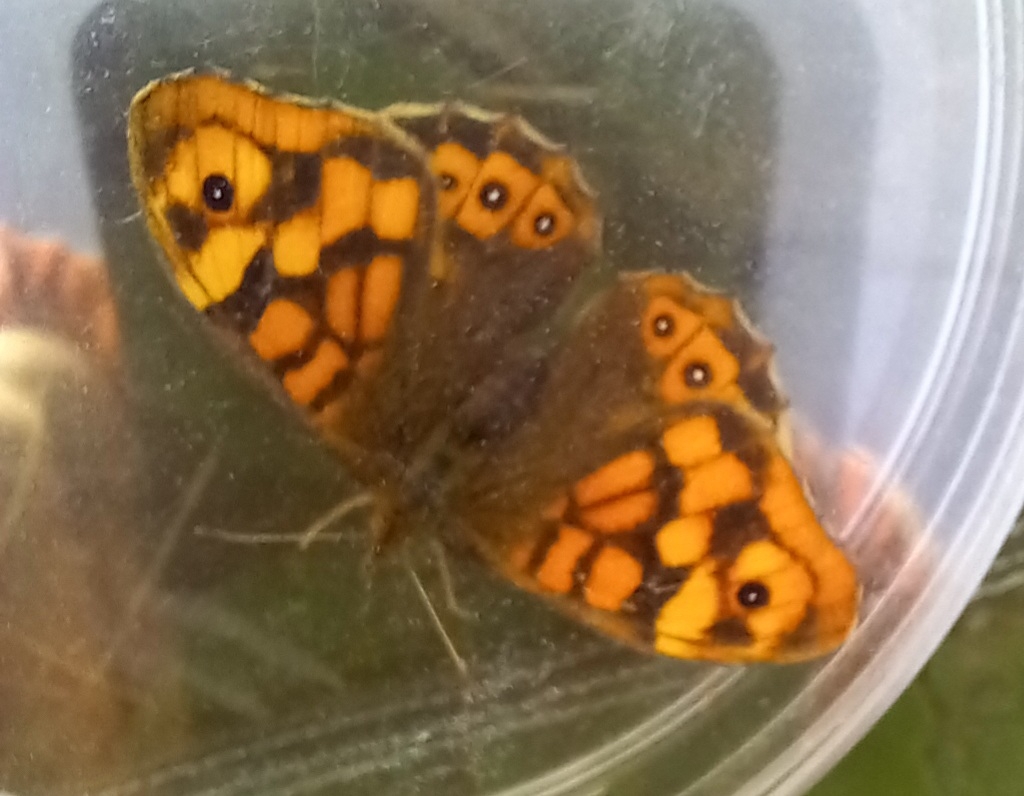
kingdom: Animalia
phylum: Arthropoda
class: Insecta
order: Lepidoptera
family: Nymphalidae
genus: Pararge
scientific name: Pararge aegeria
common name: Speckled wood
